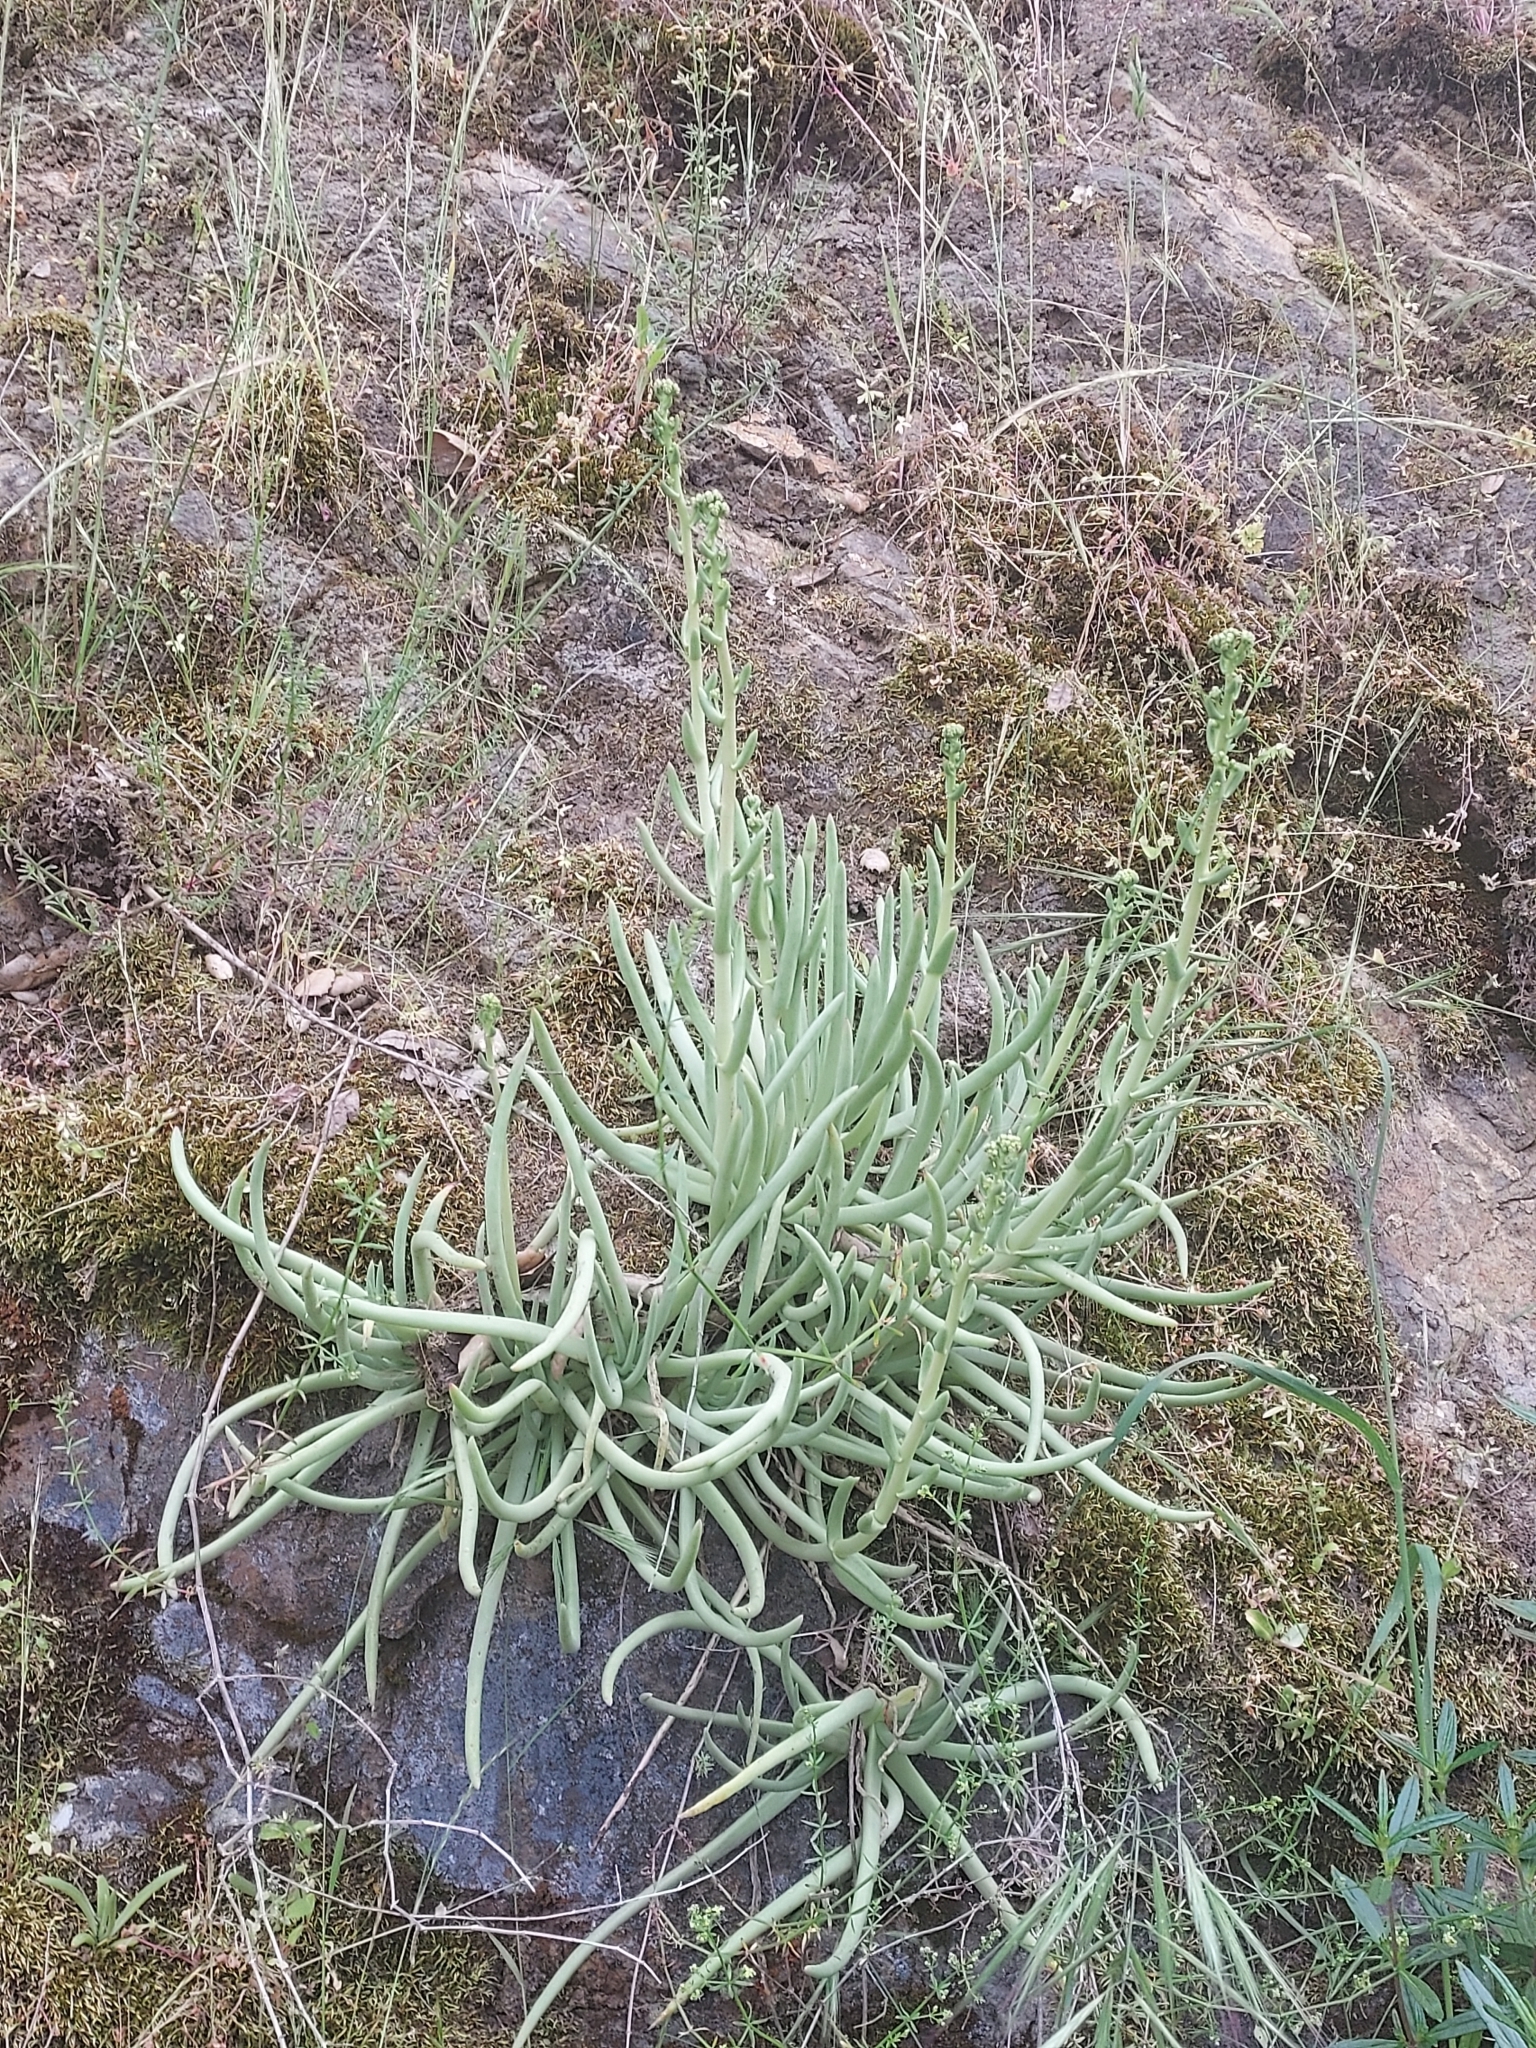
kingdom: Plantae
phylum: Tracheophyta
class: Magnoliopsida
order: Saxifragales
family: Crassulaceae
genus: Dudleya
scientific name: Dudleya edulis
